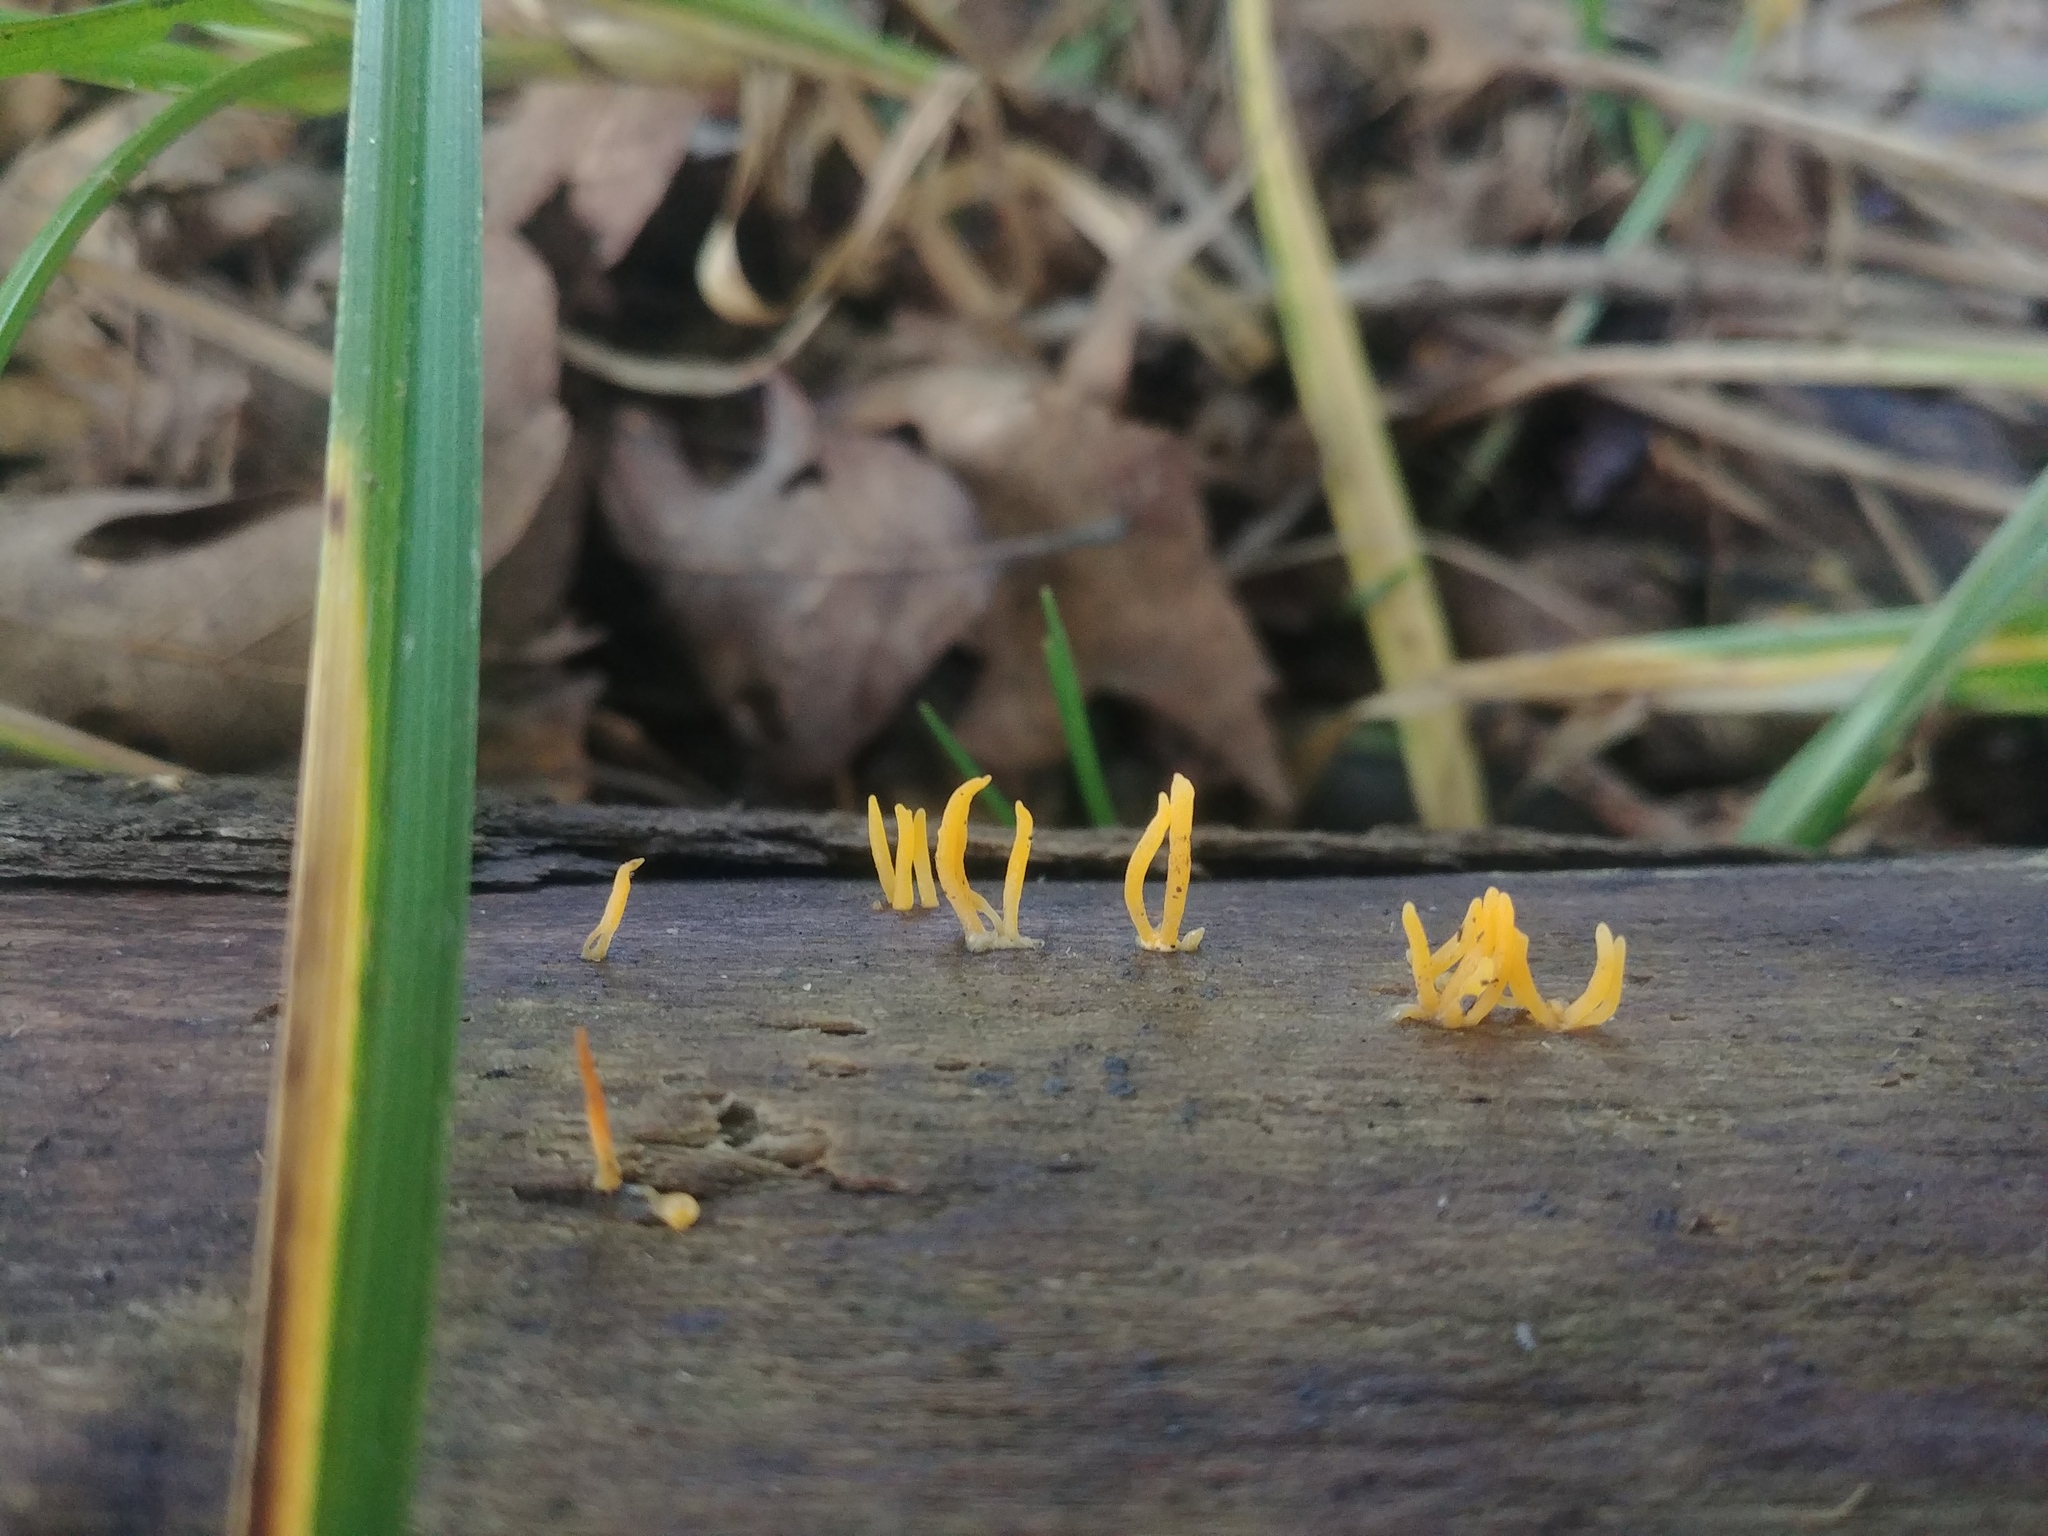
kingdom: Fungi
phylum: Basidiomycota
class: Dacrymycetes
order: Dacrymycetales
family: Dacrymycetaceae
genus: Calocera
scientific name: Calocera cornea
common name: Small stagshorn
